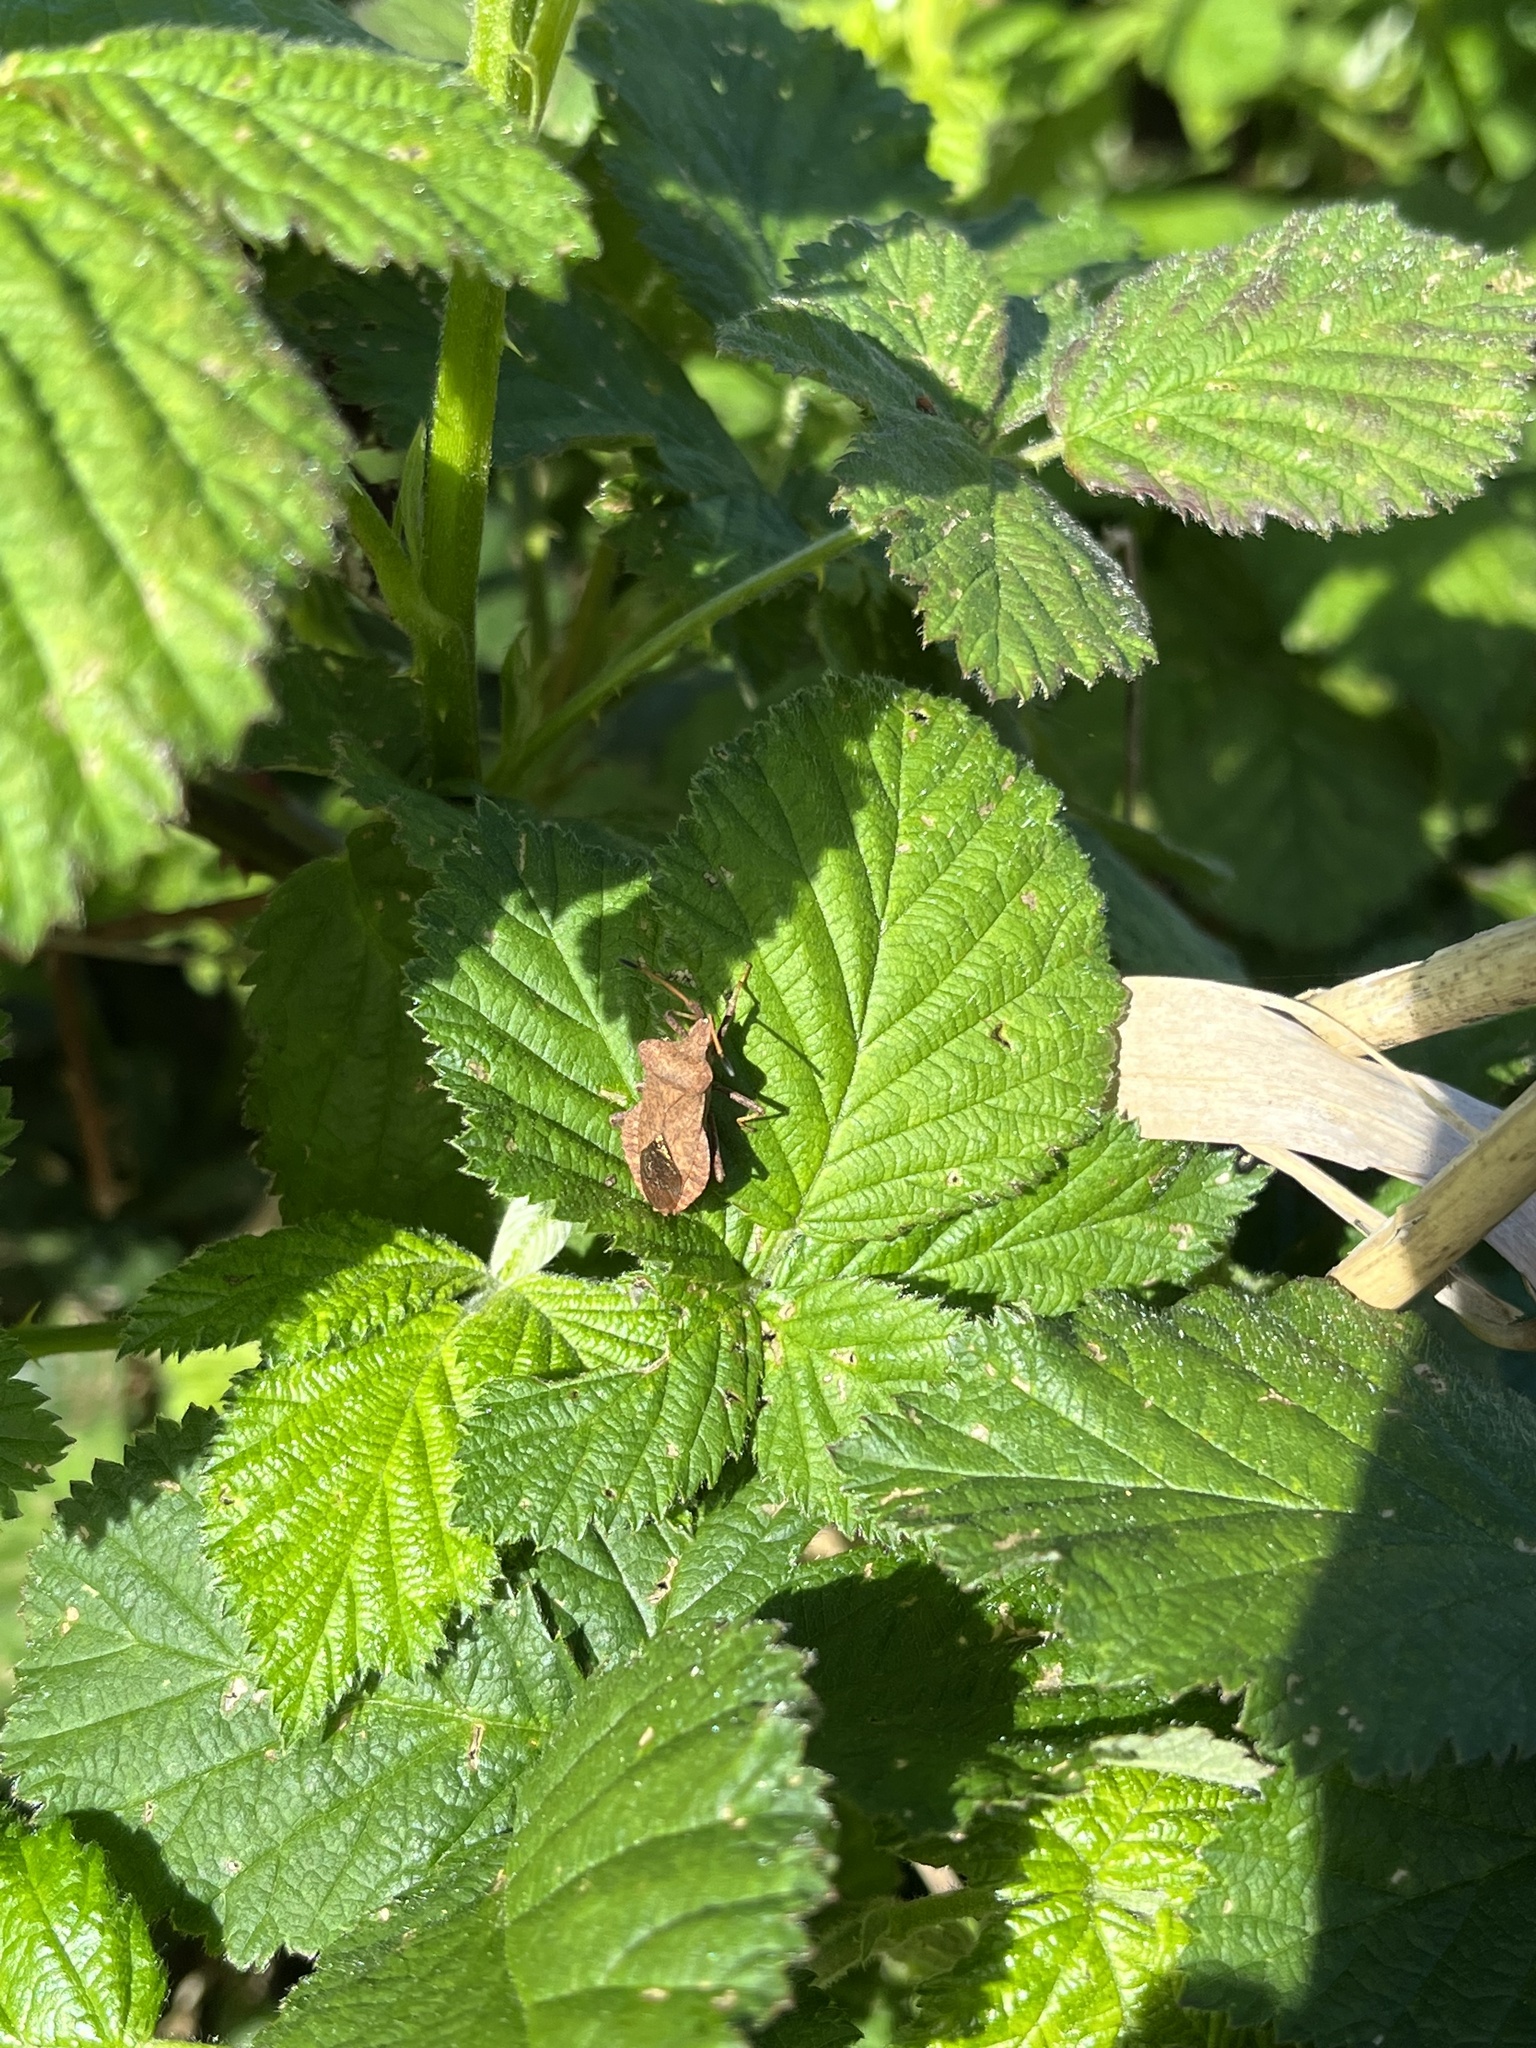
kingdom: Animalia
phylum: Arthropoda
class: Insecta
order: Hemiptera
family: Coreidae
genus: Coreus
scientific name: Coreus marginatus
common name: Dock bug
